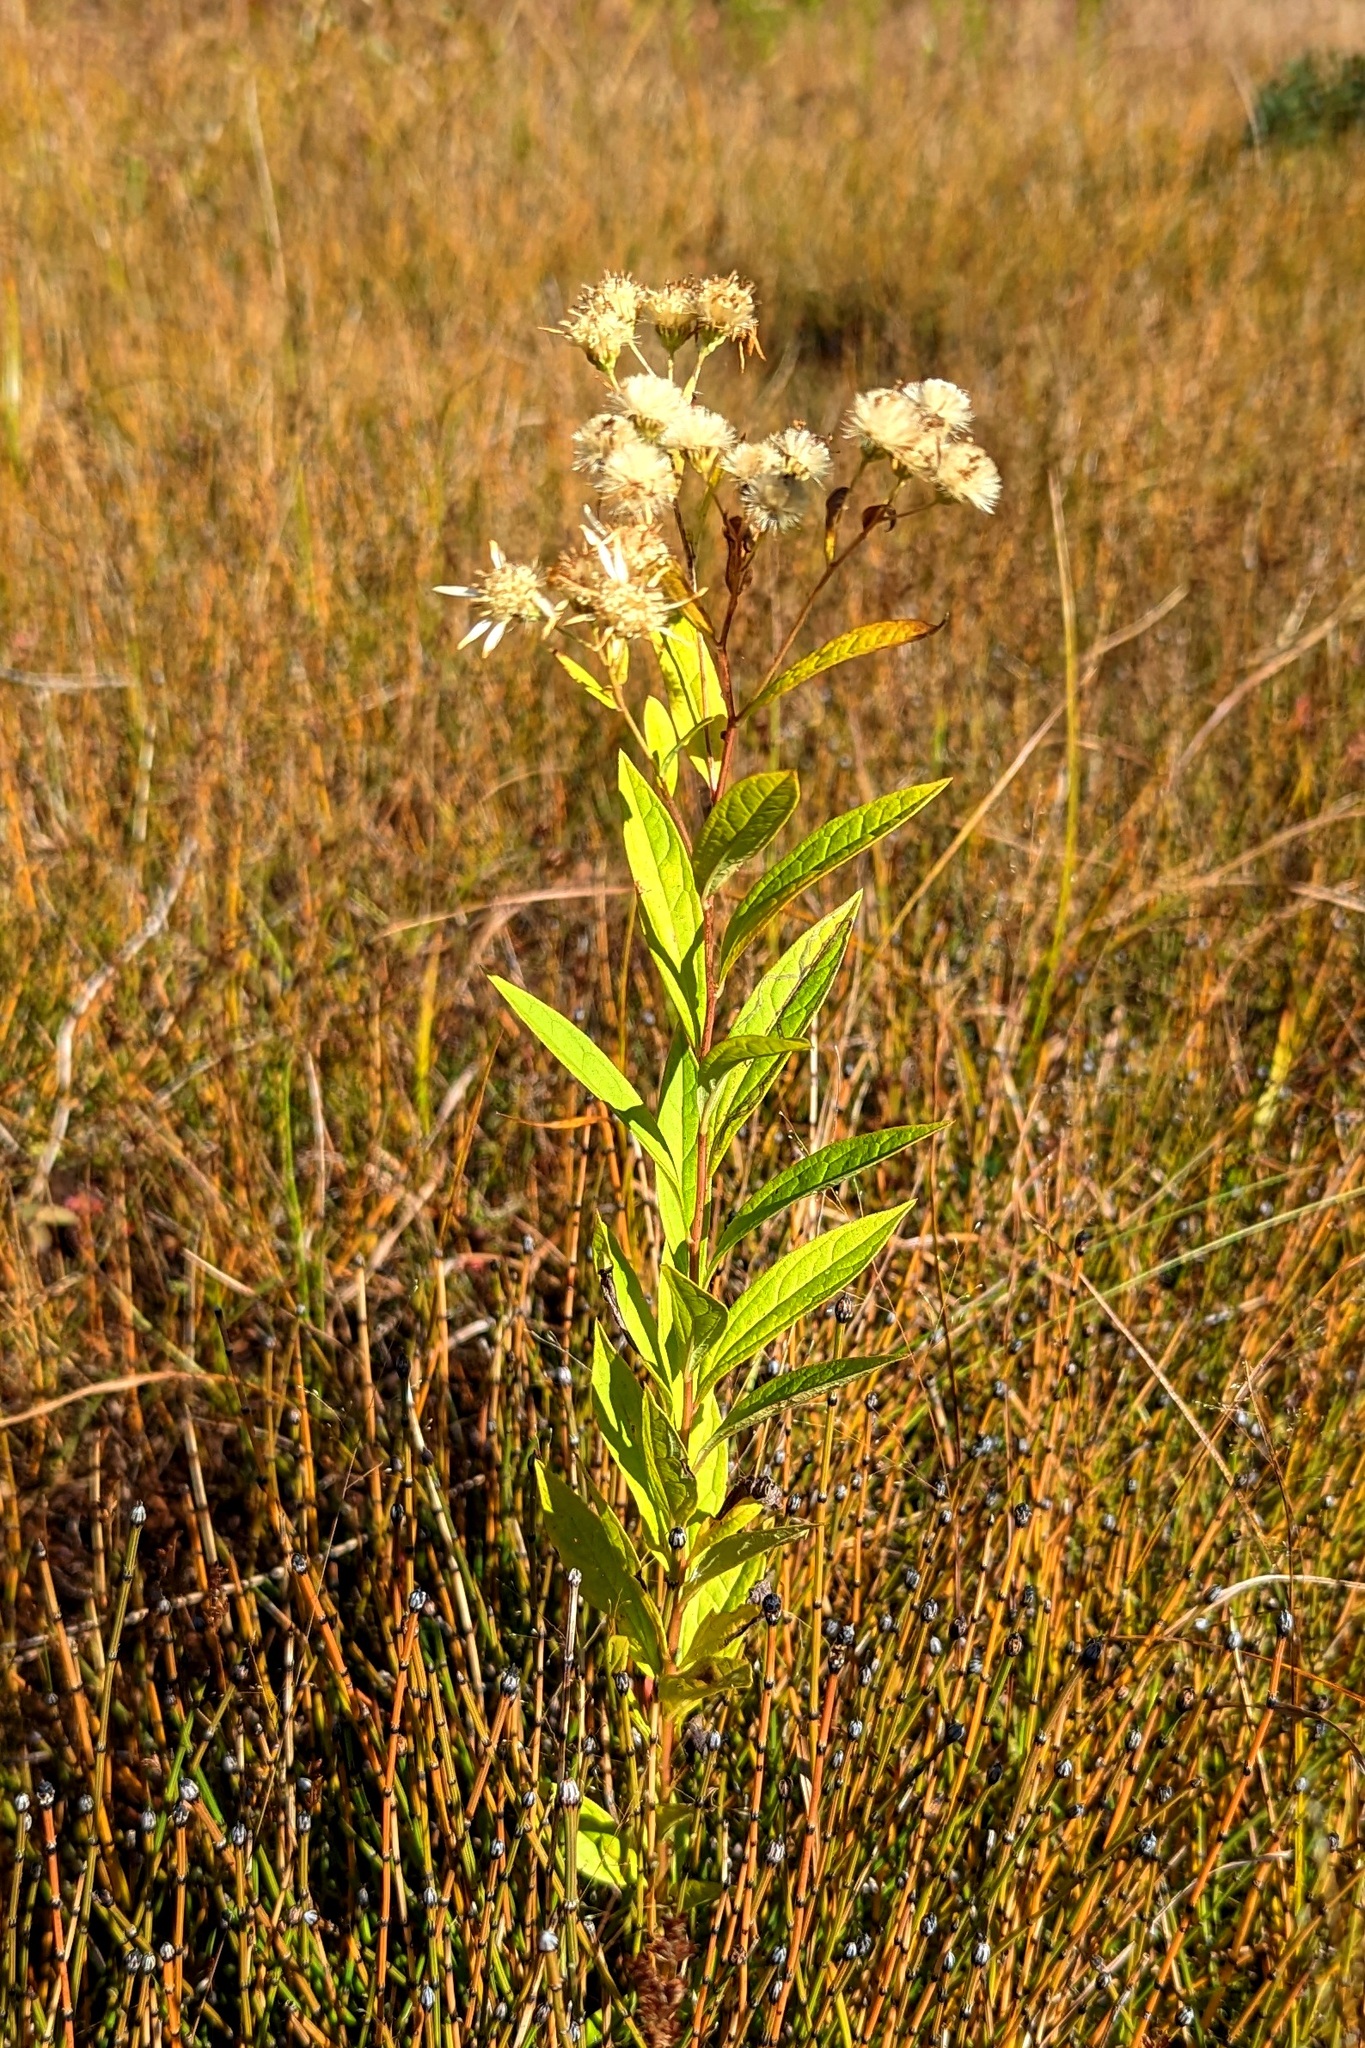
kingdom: Plantae
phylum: Tracheophyta
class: Magnoliopsida
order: Asterales
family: Asteraceae
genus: Doellingeria
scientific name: Doellingeria umbellata
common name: Flat-top white aster
